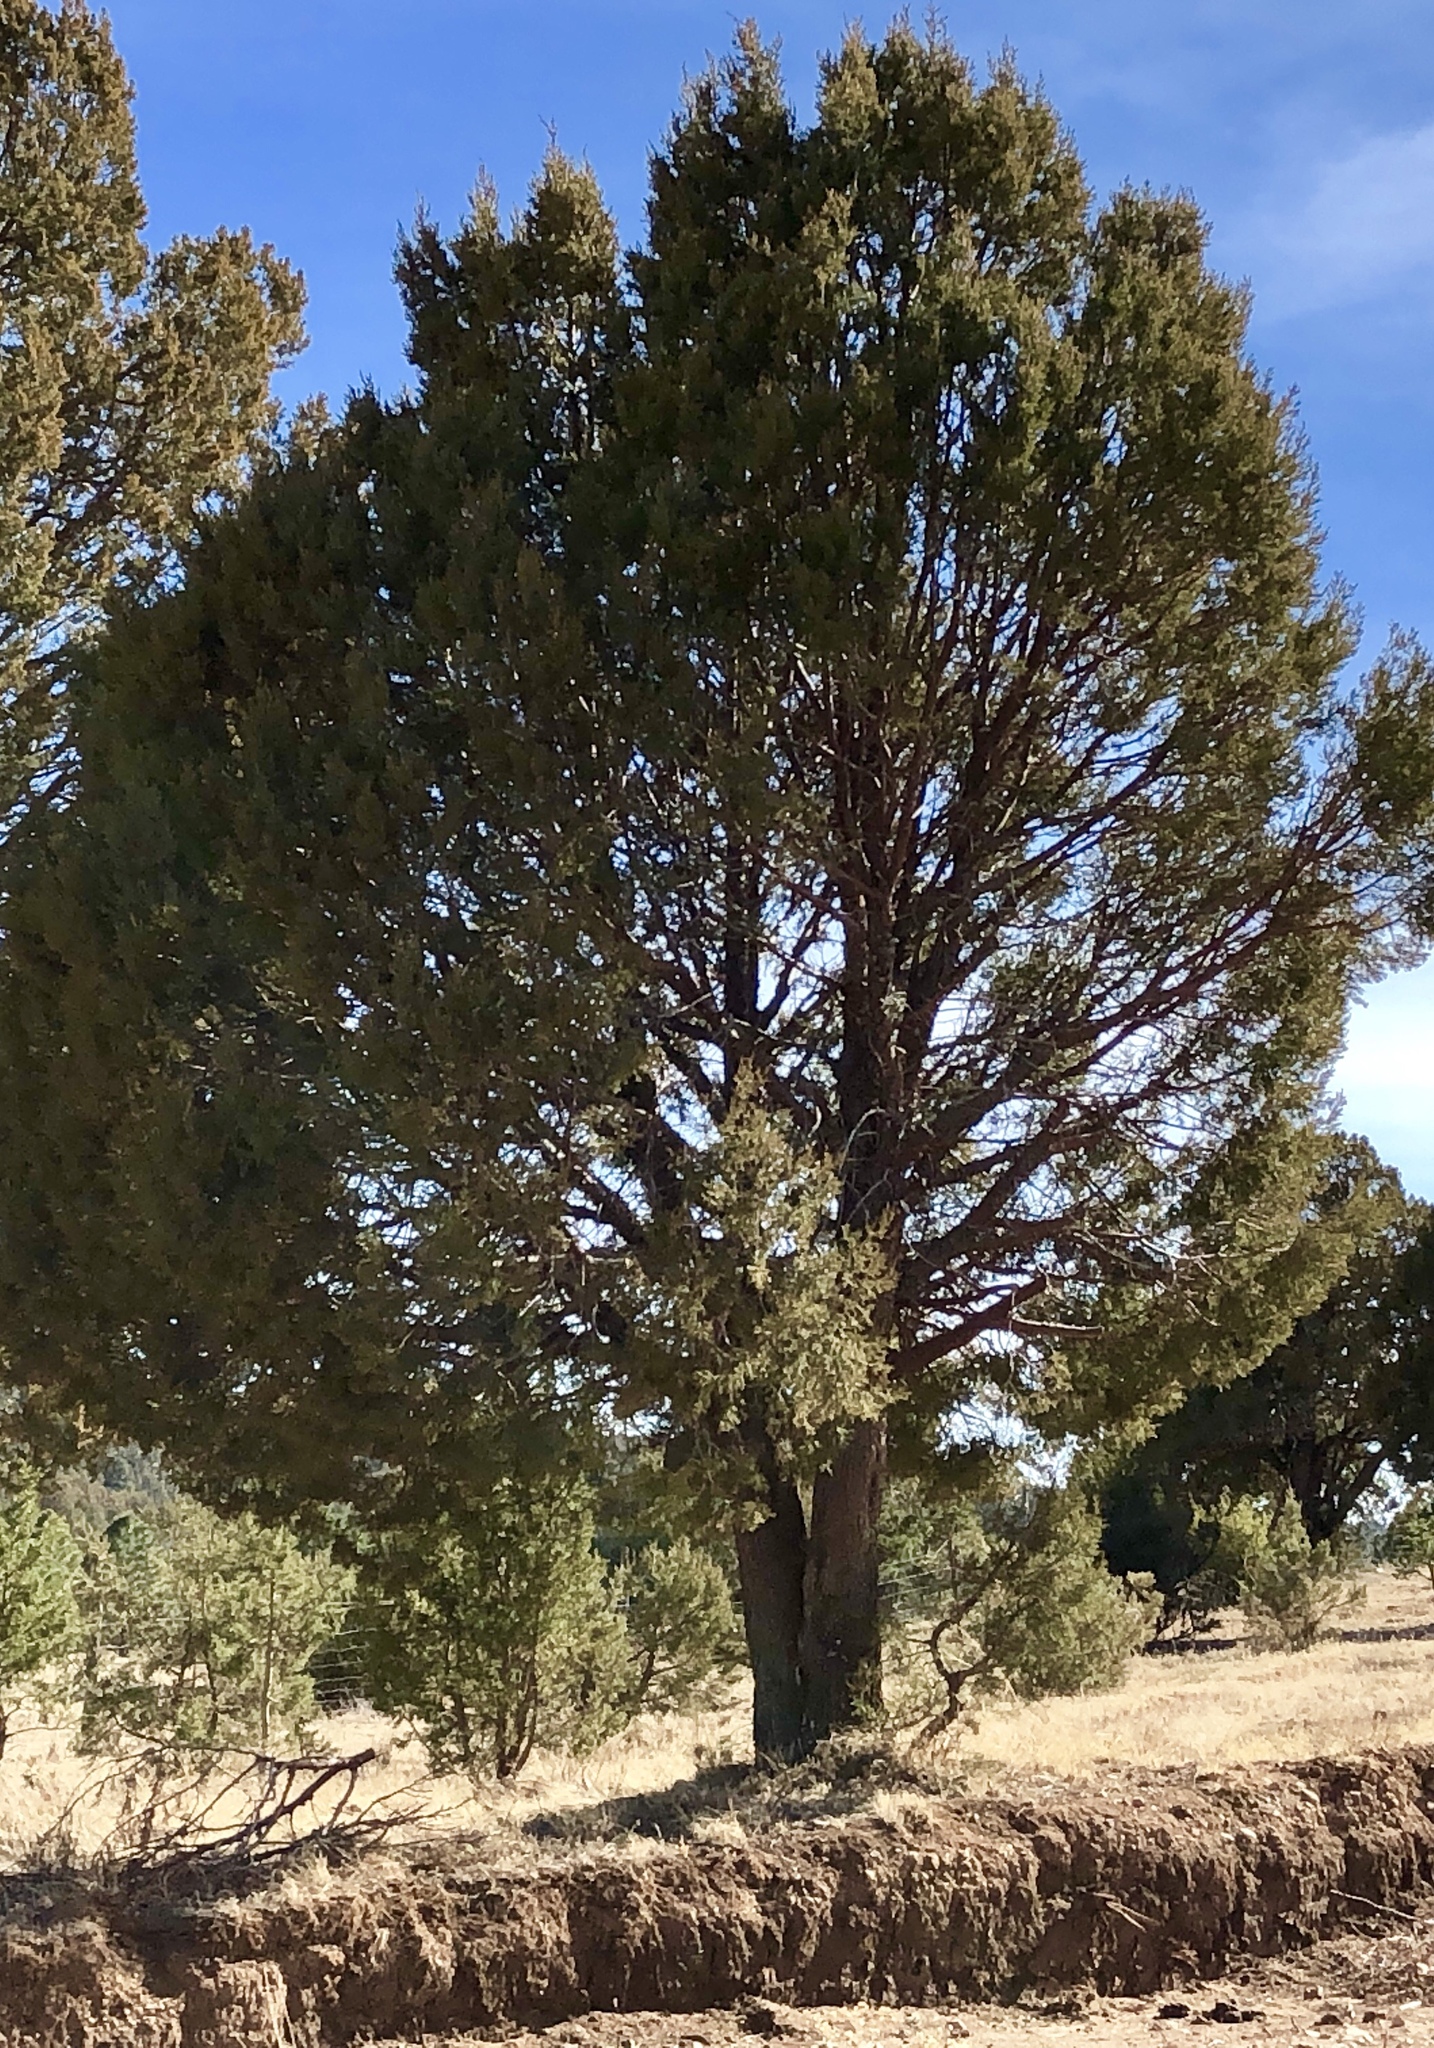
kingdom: Plantae
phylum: Tracheophyta
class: Pinopsida
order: Pinales
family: Cupressaceae
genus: Juniperus
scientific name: Juniperus deppeana
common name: Alligator juniper
